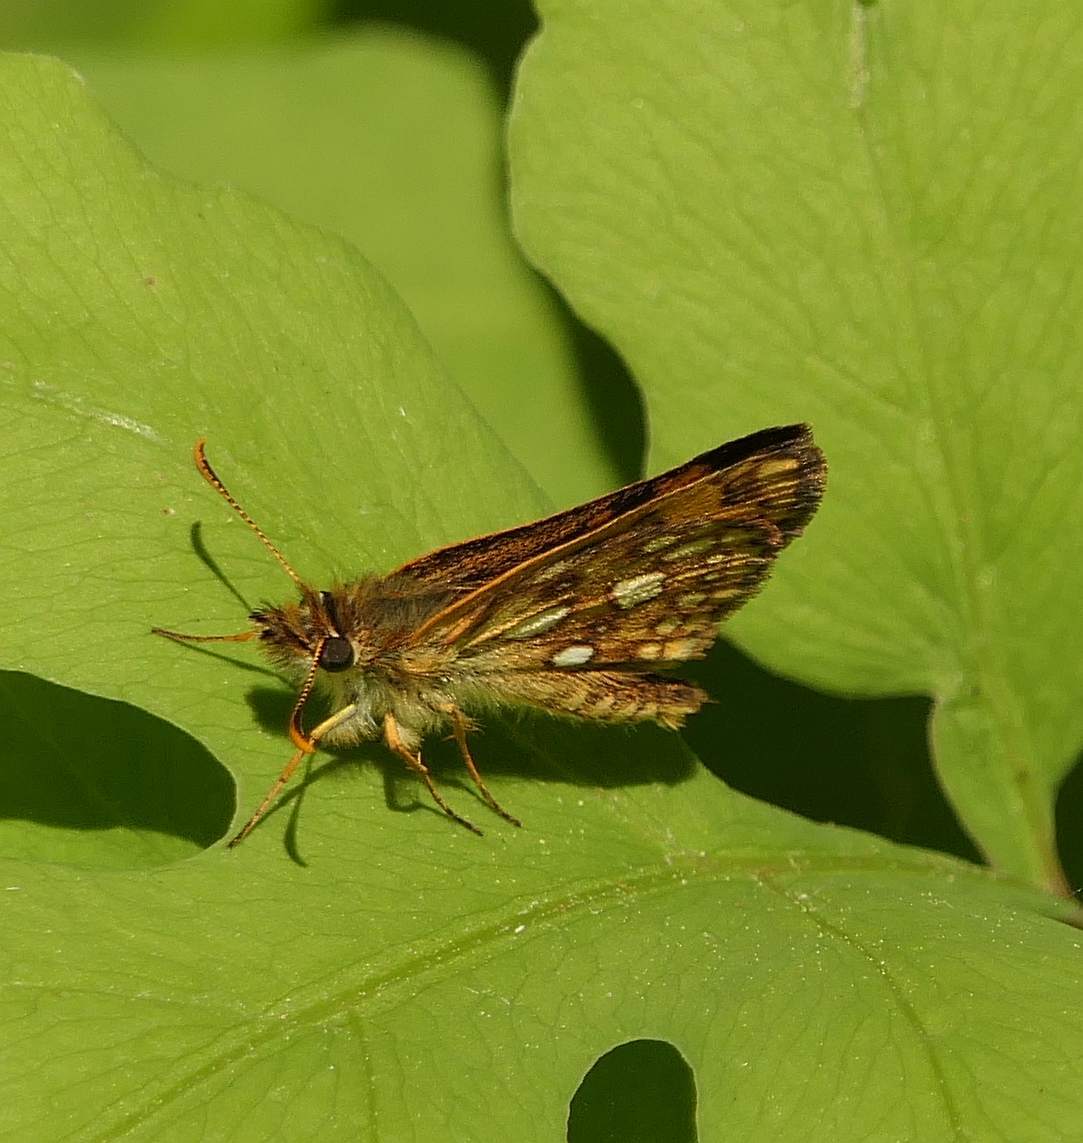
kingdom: Animalia
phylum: Arthropoda
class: Insecta
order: Lepidoptera
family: Hesperiidae
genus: Carterocephalus
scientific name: Carterocephalus mandan
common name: Arctic skipperling
